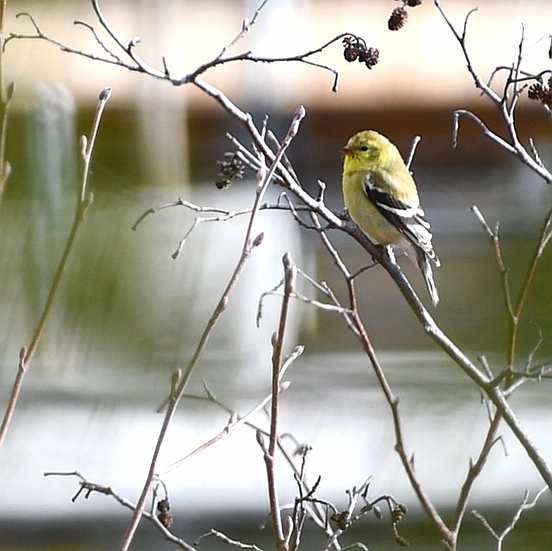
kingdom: Animalia
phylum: Chordata
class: Aves
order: Passeriformes
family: Fringillidae
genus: Spinus
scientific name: Spinus tristis
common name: American goldfinch
